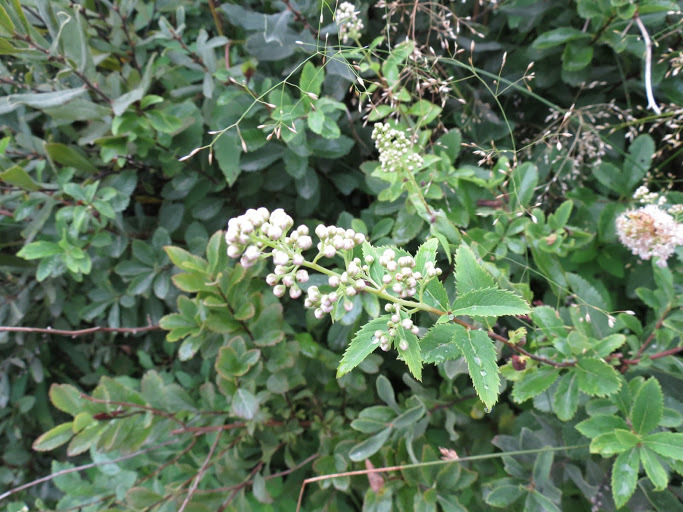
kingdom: Plantae
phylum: Tracheophyta
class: Magnoliopsida
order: Rosales
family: Rosaceae
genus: Spiraea
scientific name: Spiraea alba
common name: Pale bridewort
